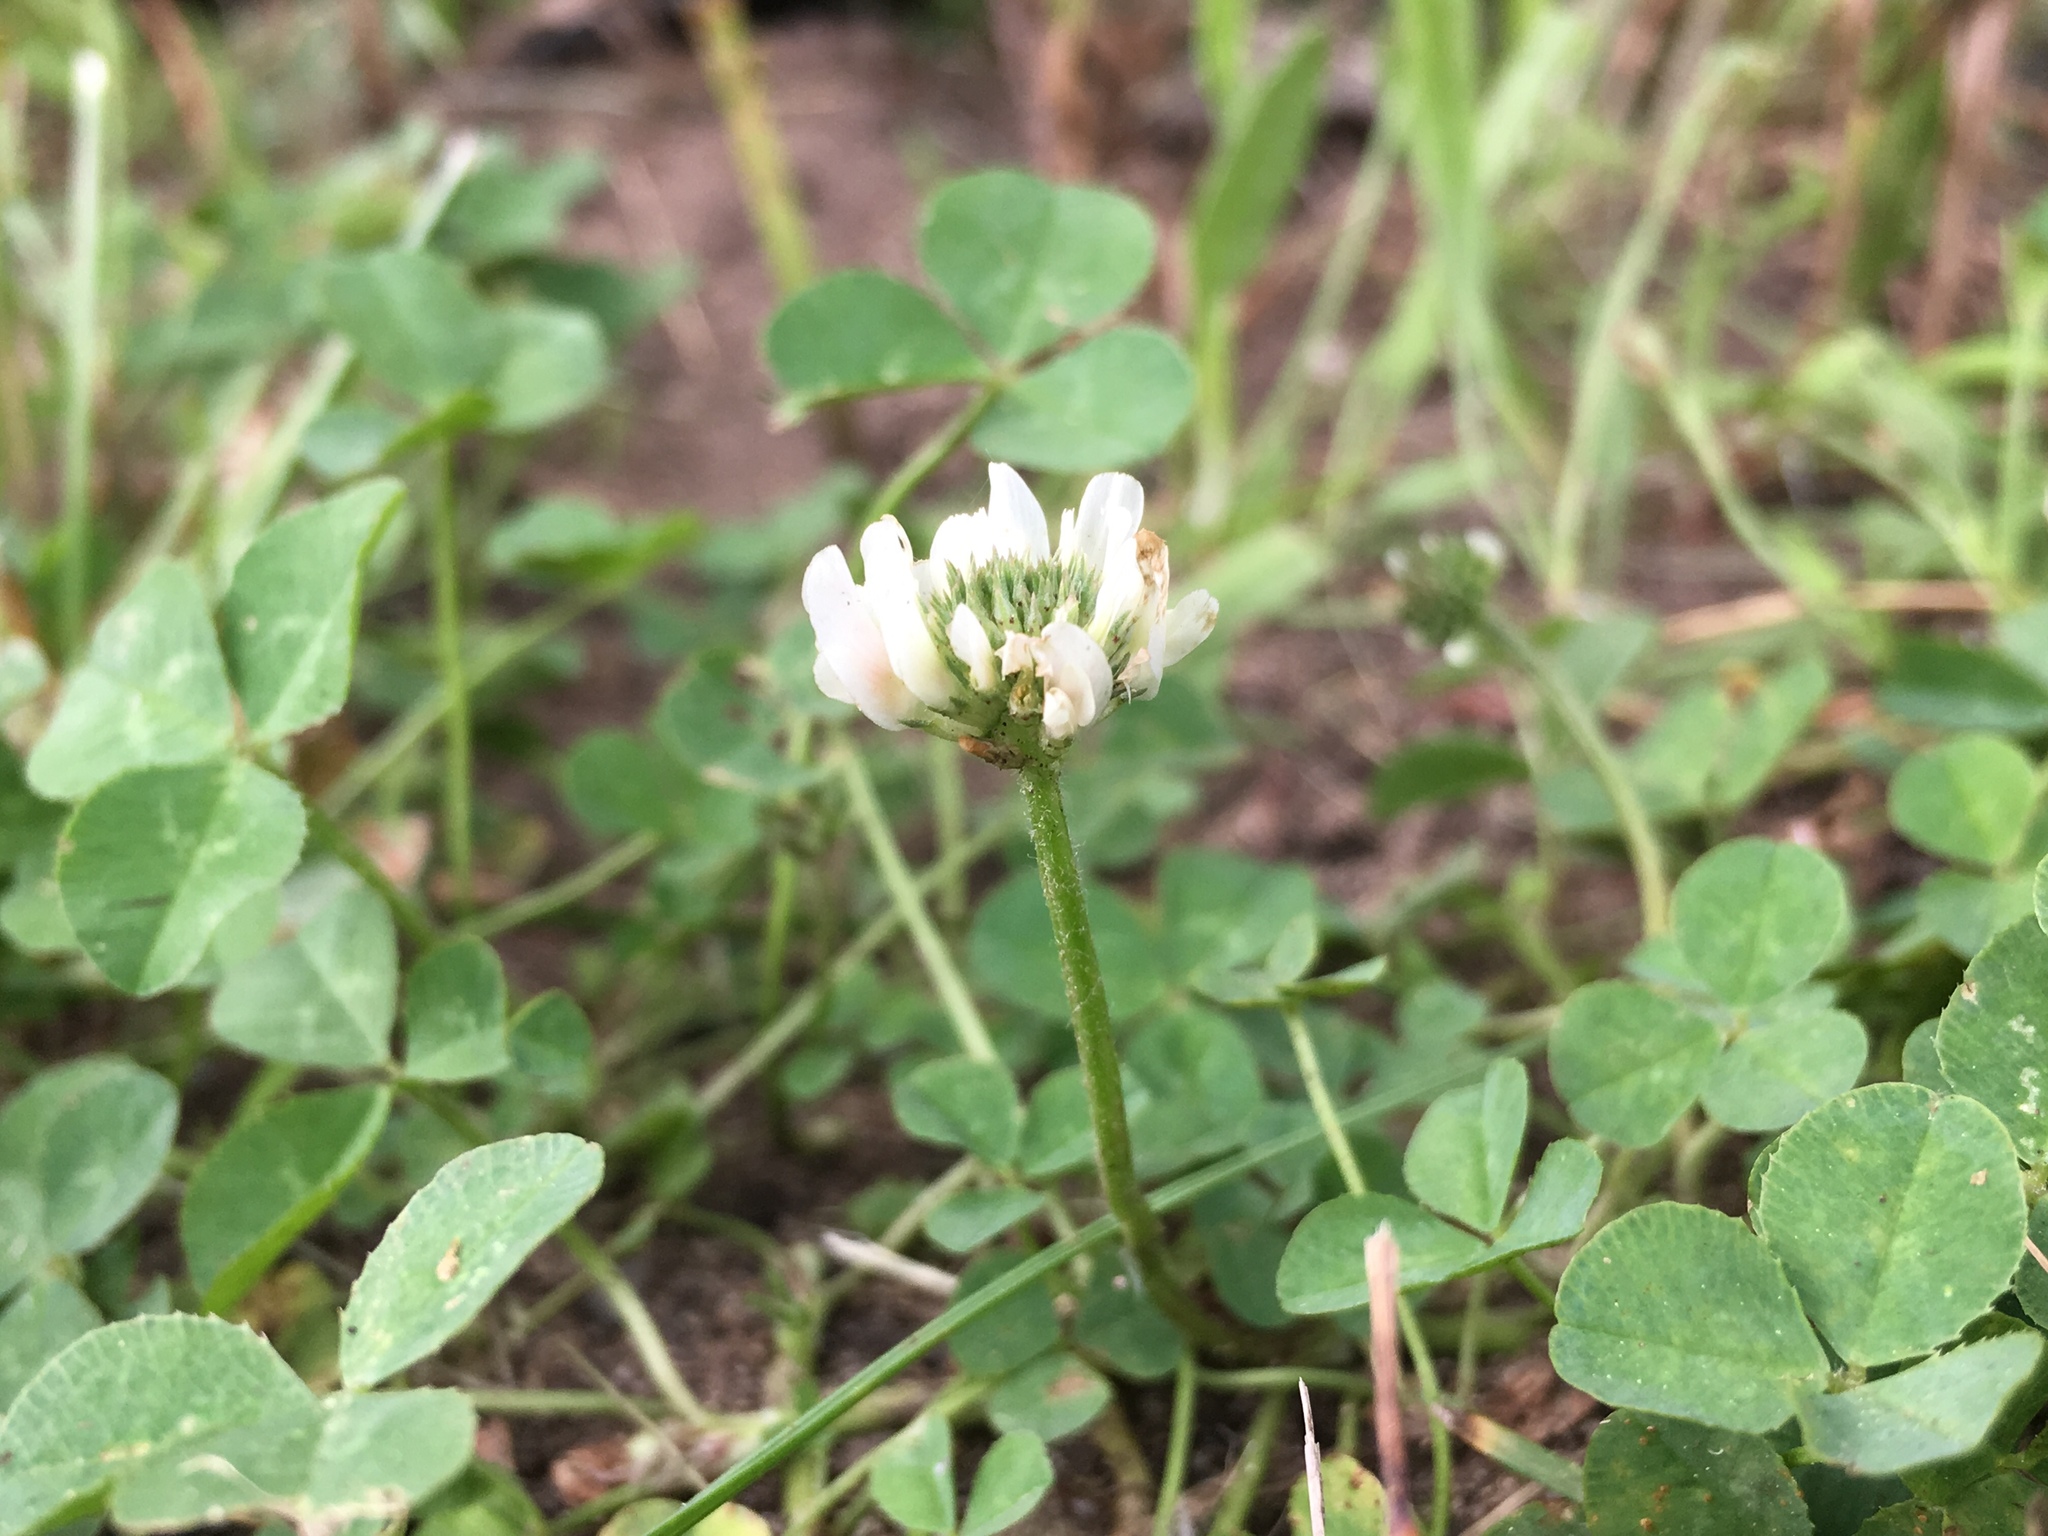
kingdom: Plantae
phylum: Tracheophyta
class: Magnoliopsida
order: Fabales
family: Fabaceae
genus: Trifolium
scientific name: Trifolium repens
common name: White clover
